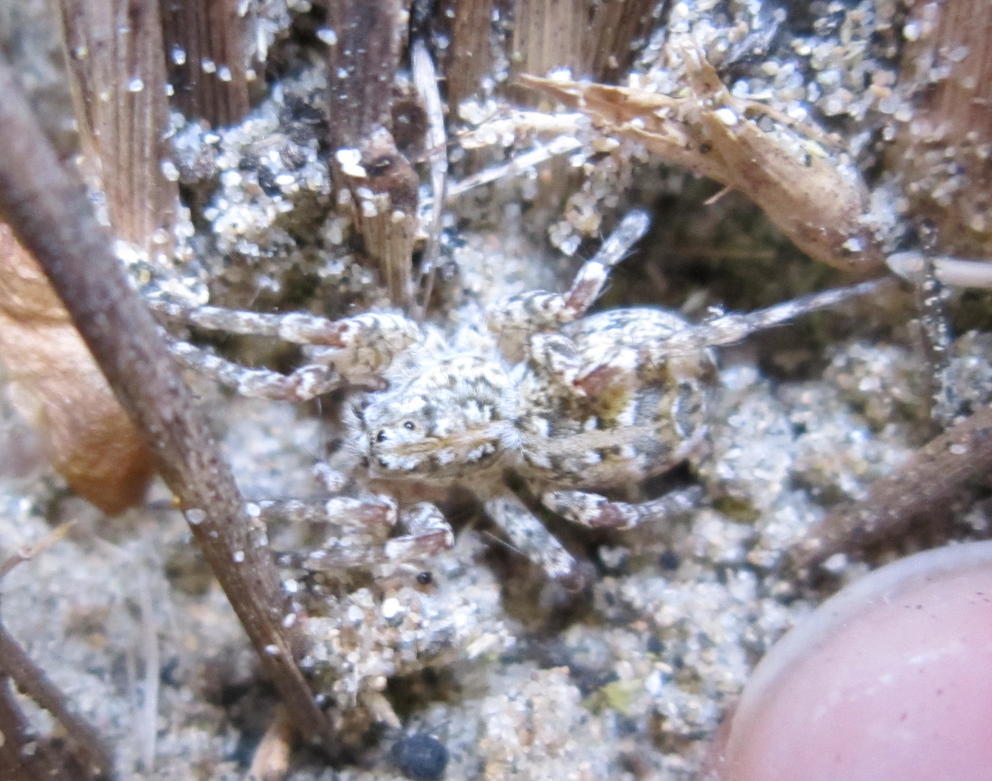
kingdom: Animalia
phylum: Arthropoda
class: Arachnida
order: Araneae
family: Lycosidae
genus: Anoteropsis
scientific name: Anoteropsis litoralis
